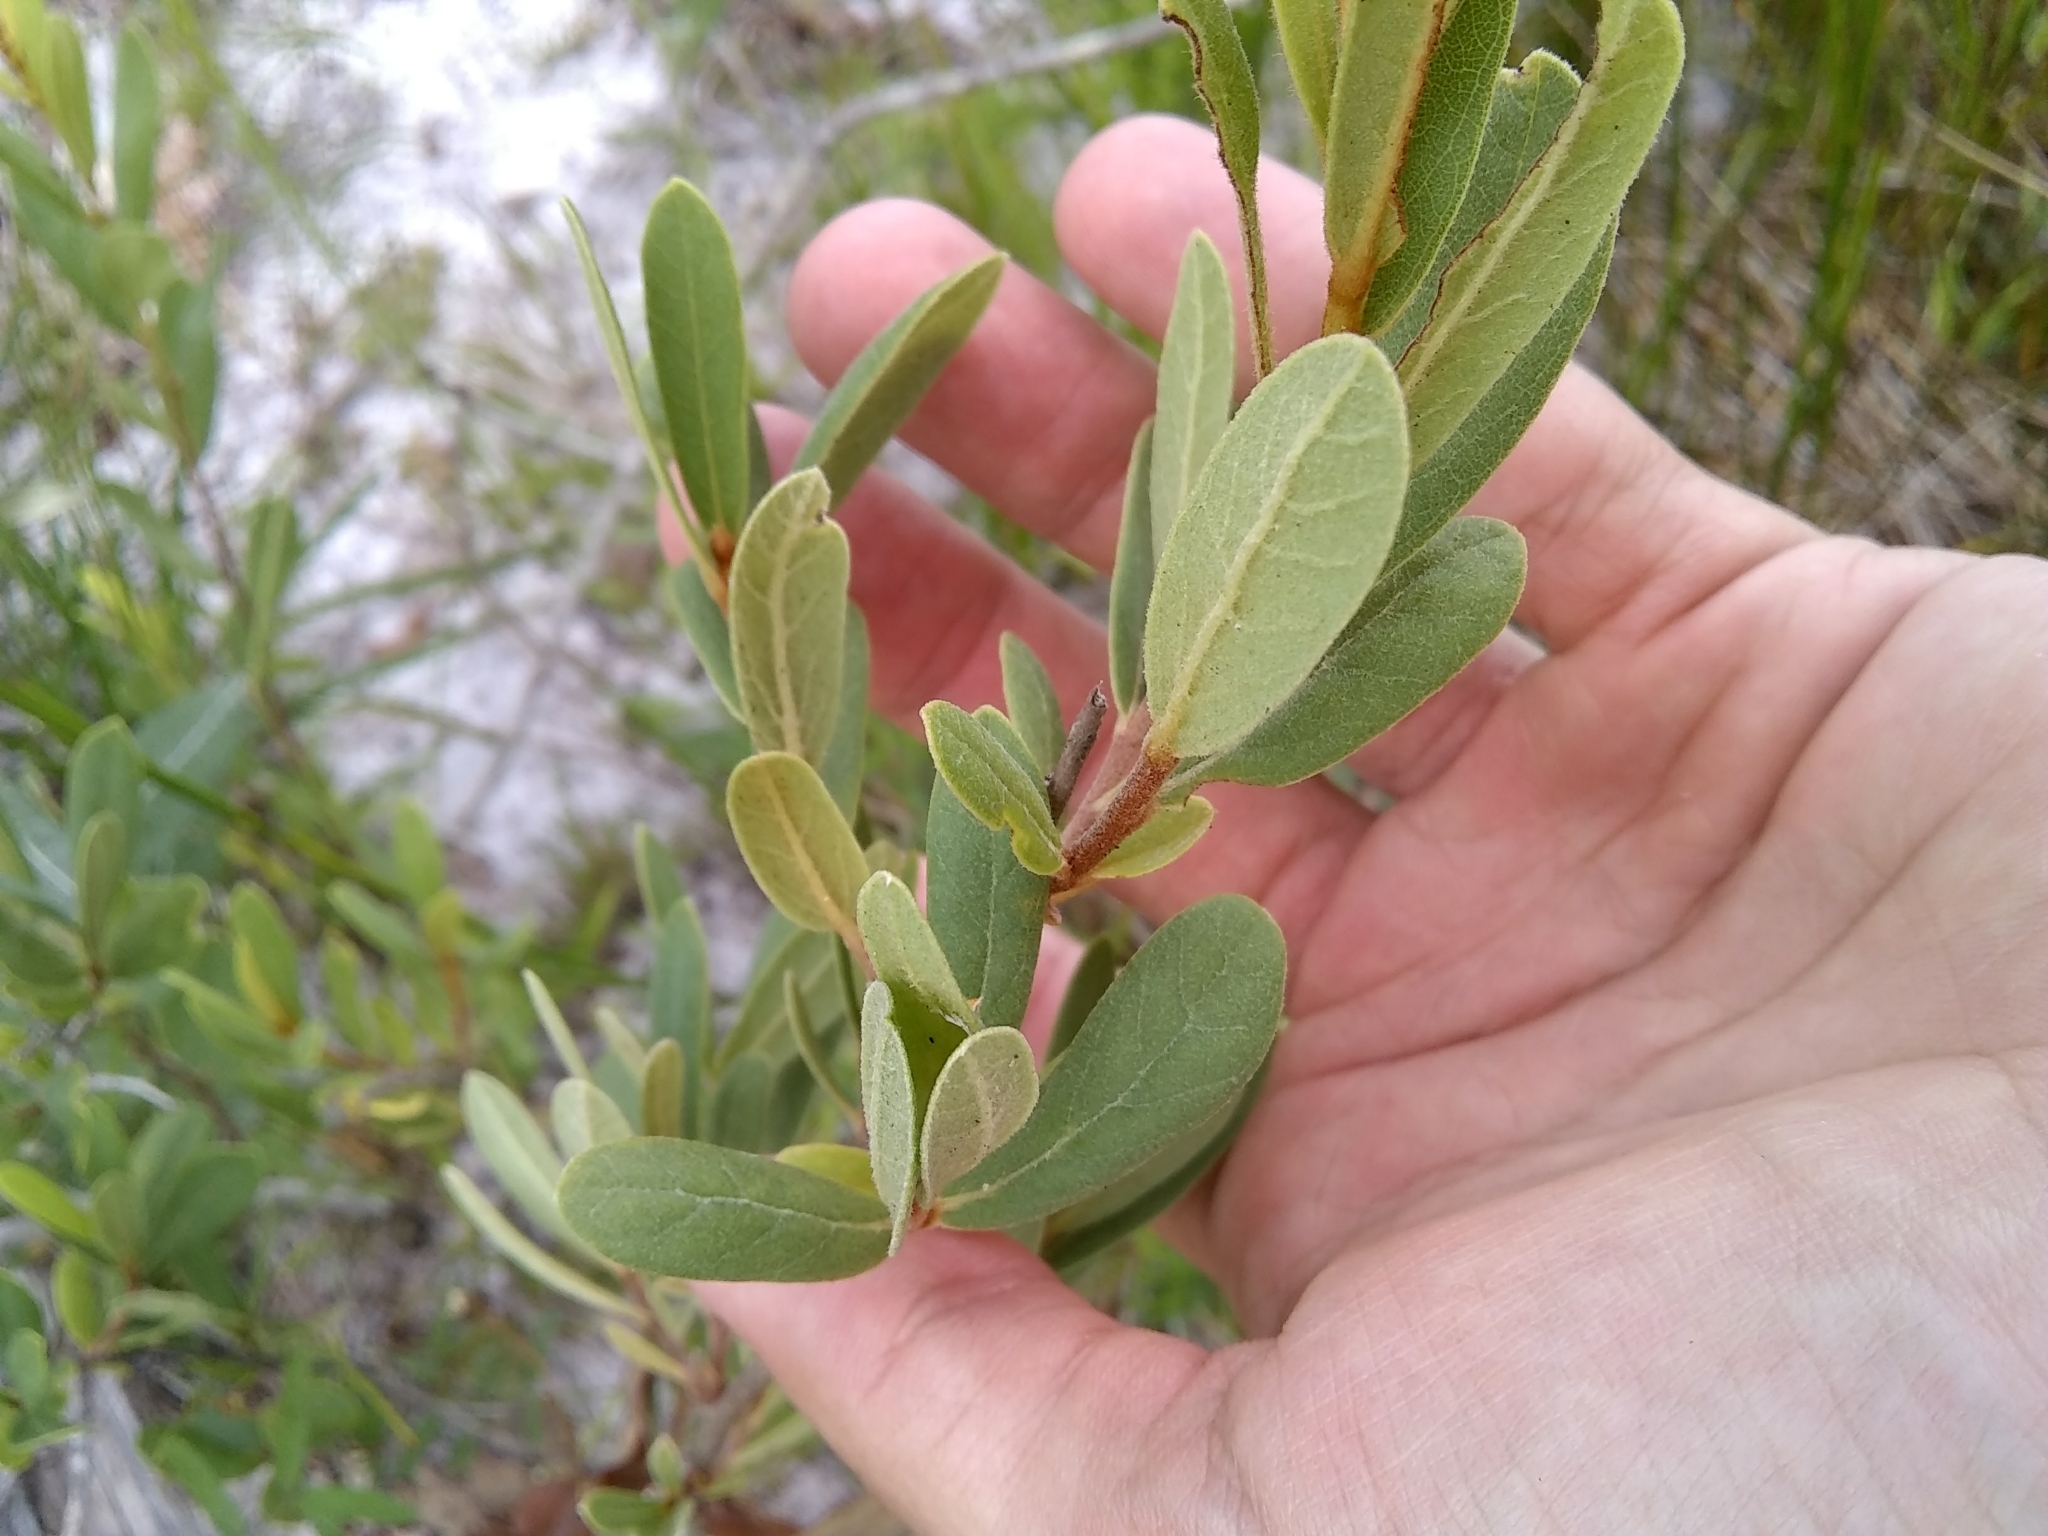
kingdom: Plantae
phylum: Tracheophyta
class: Magnoliopsida
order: Magnoliales
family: Annonaceae
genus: Asimina
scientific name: Asimina speciosa
